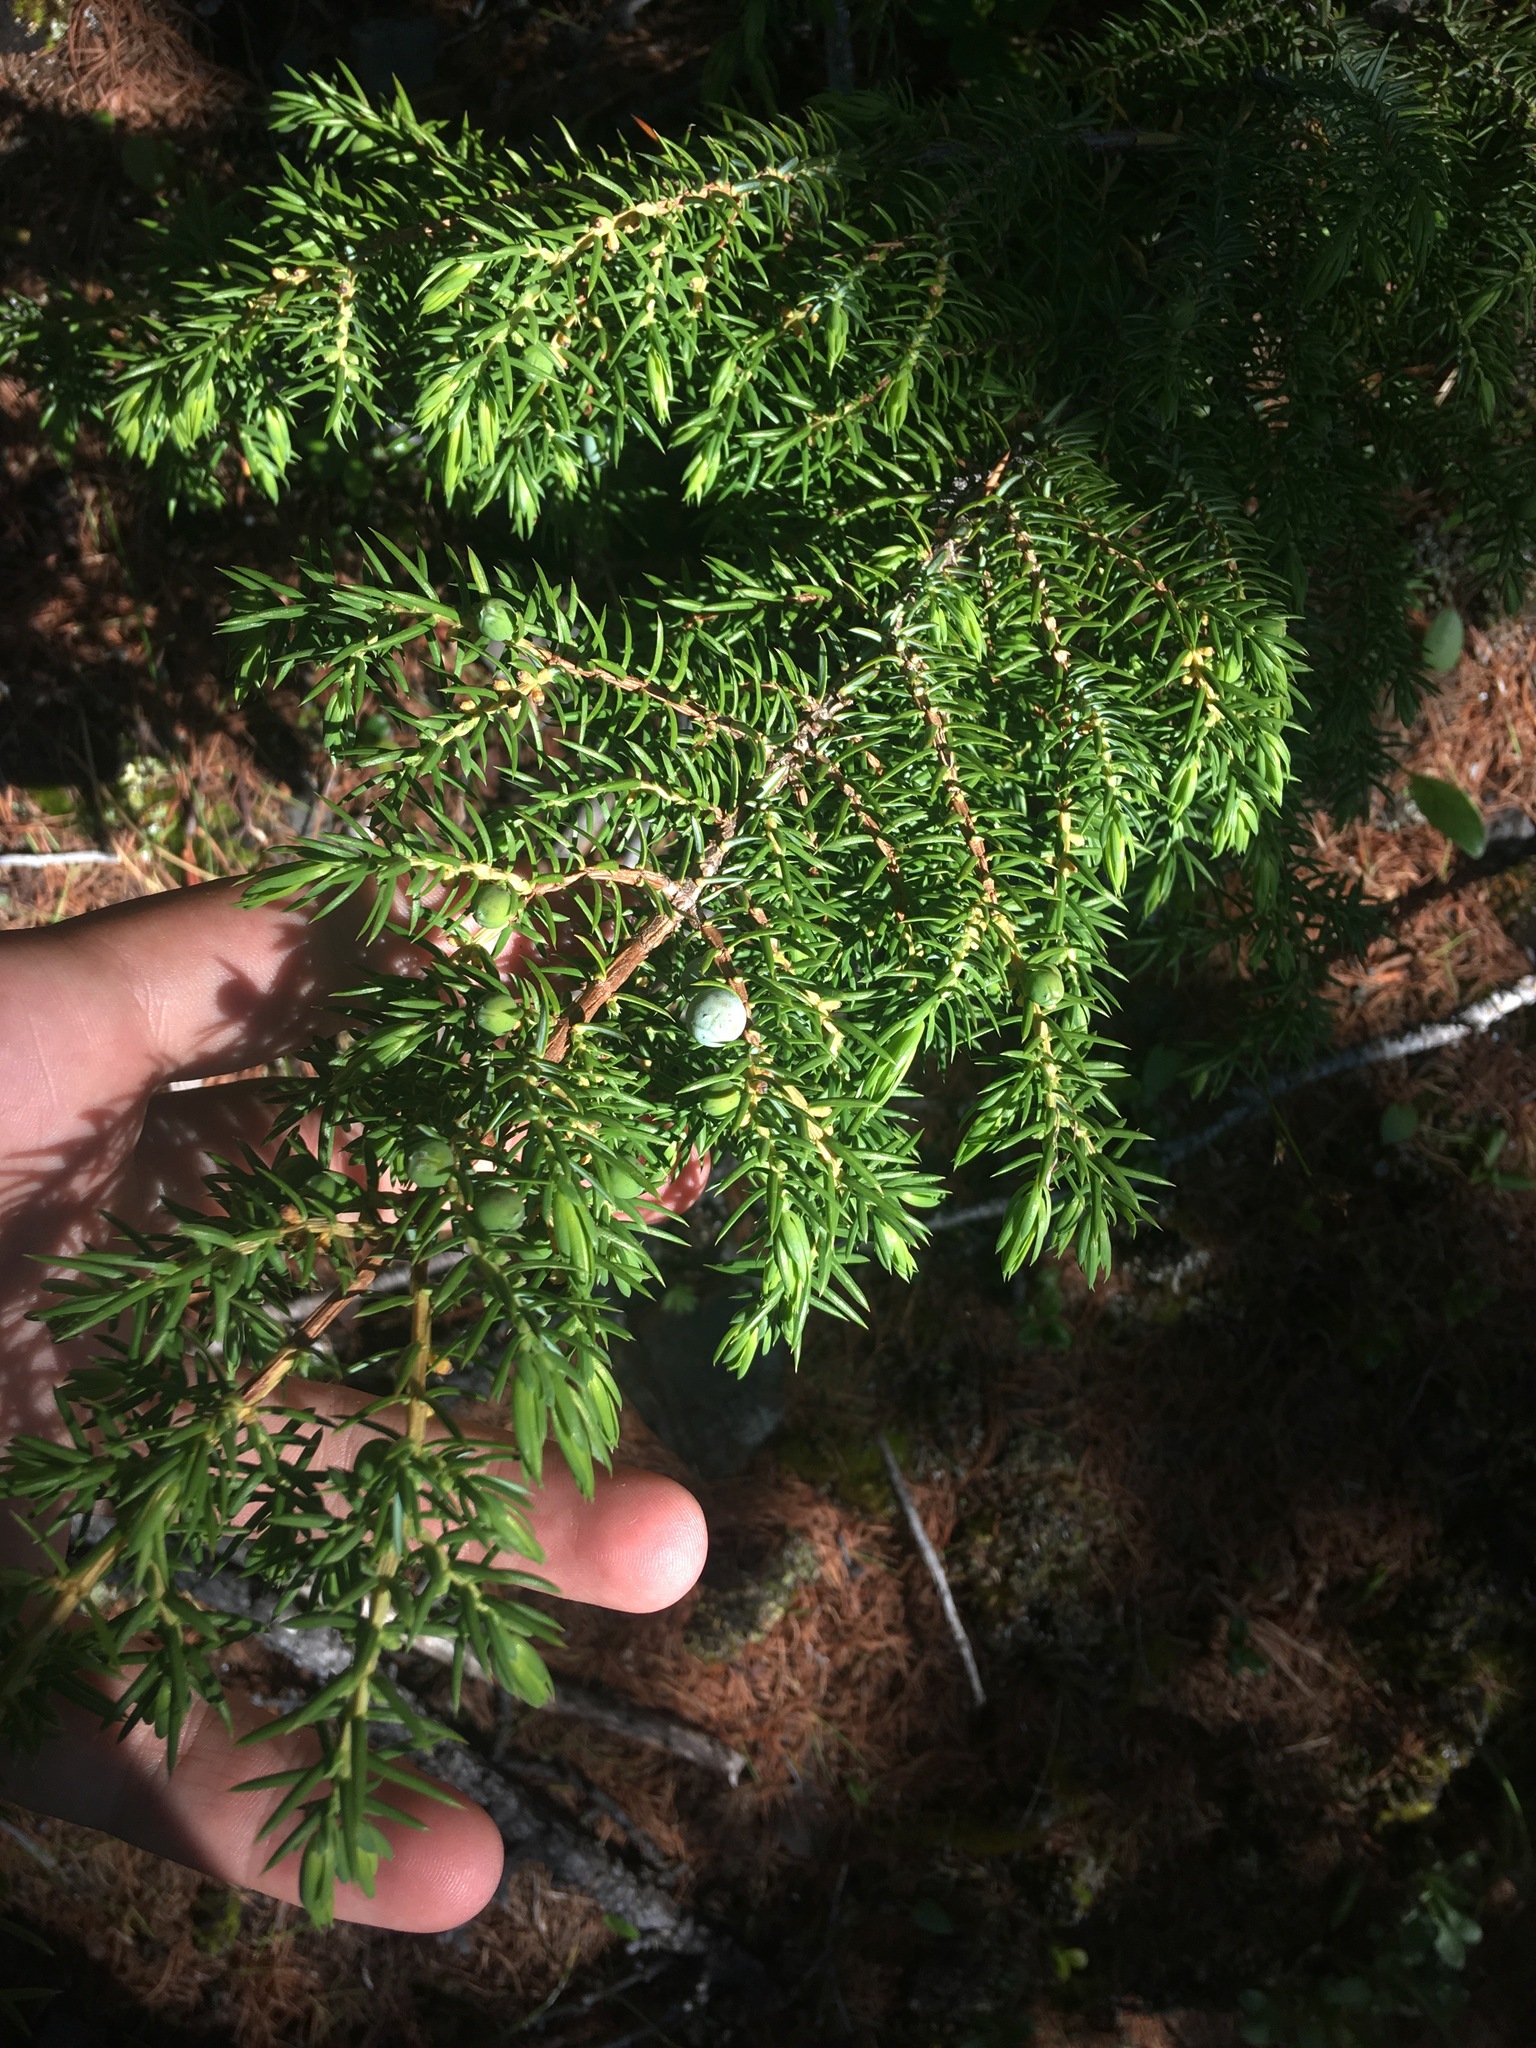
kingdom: Plantae
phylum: Tracheophyta
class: Pinopsida
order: Pinales
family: Cupressaceae
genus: Juniperus
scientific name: Juniperus communis
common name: Common juniper
